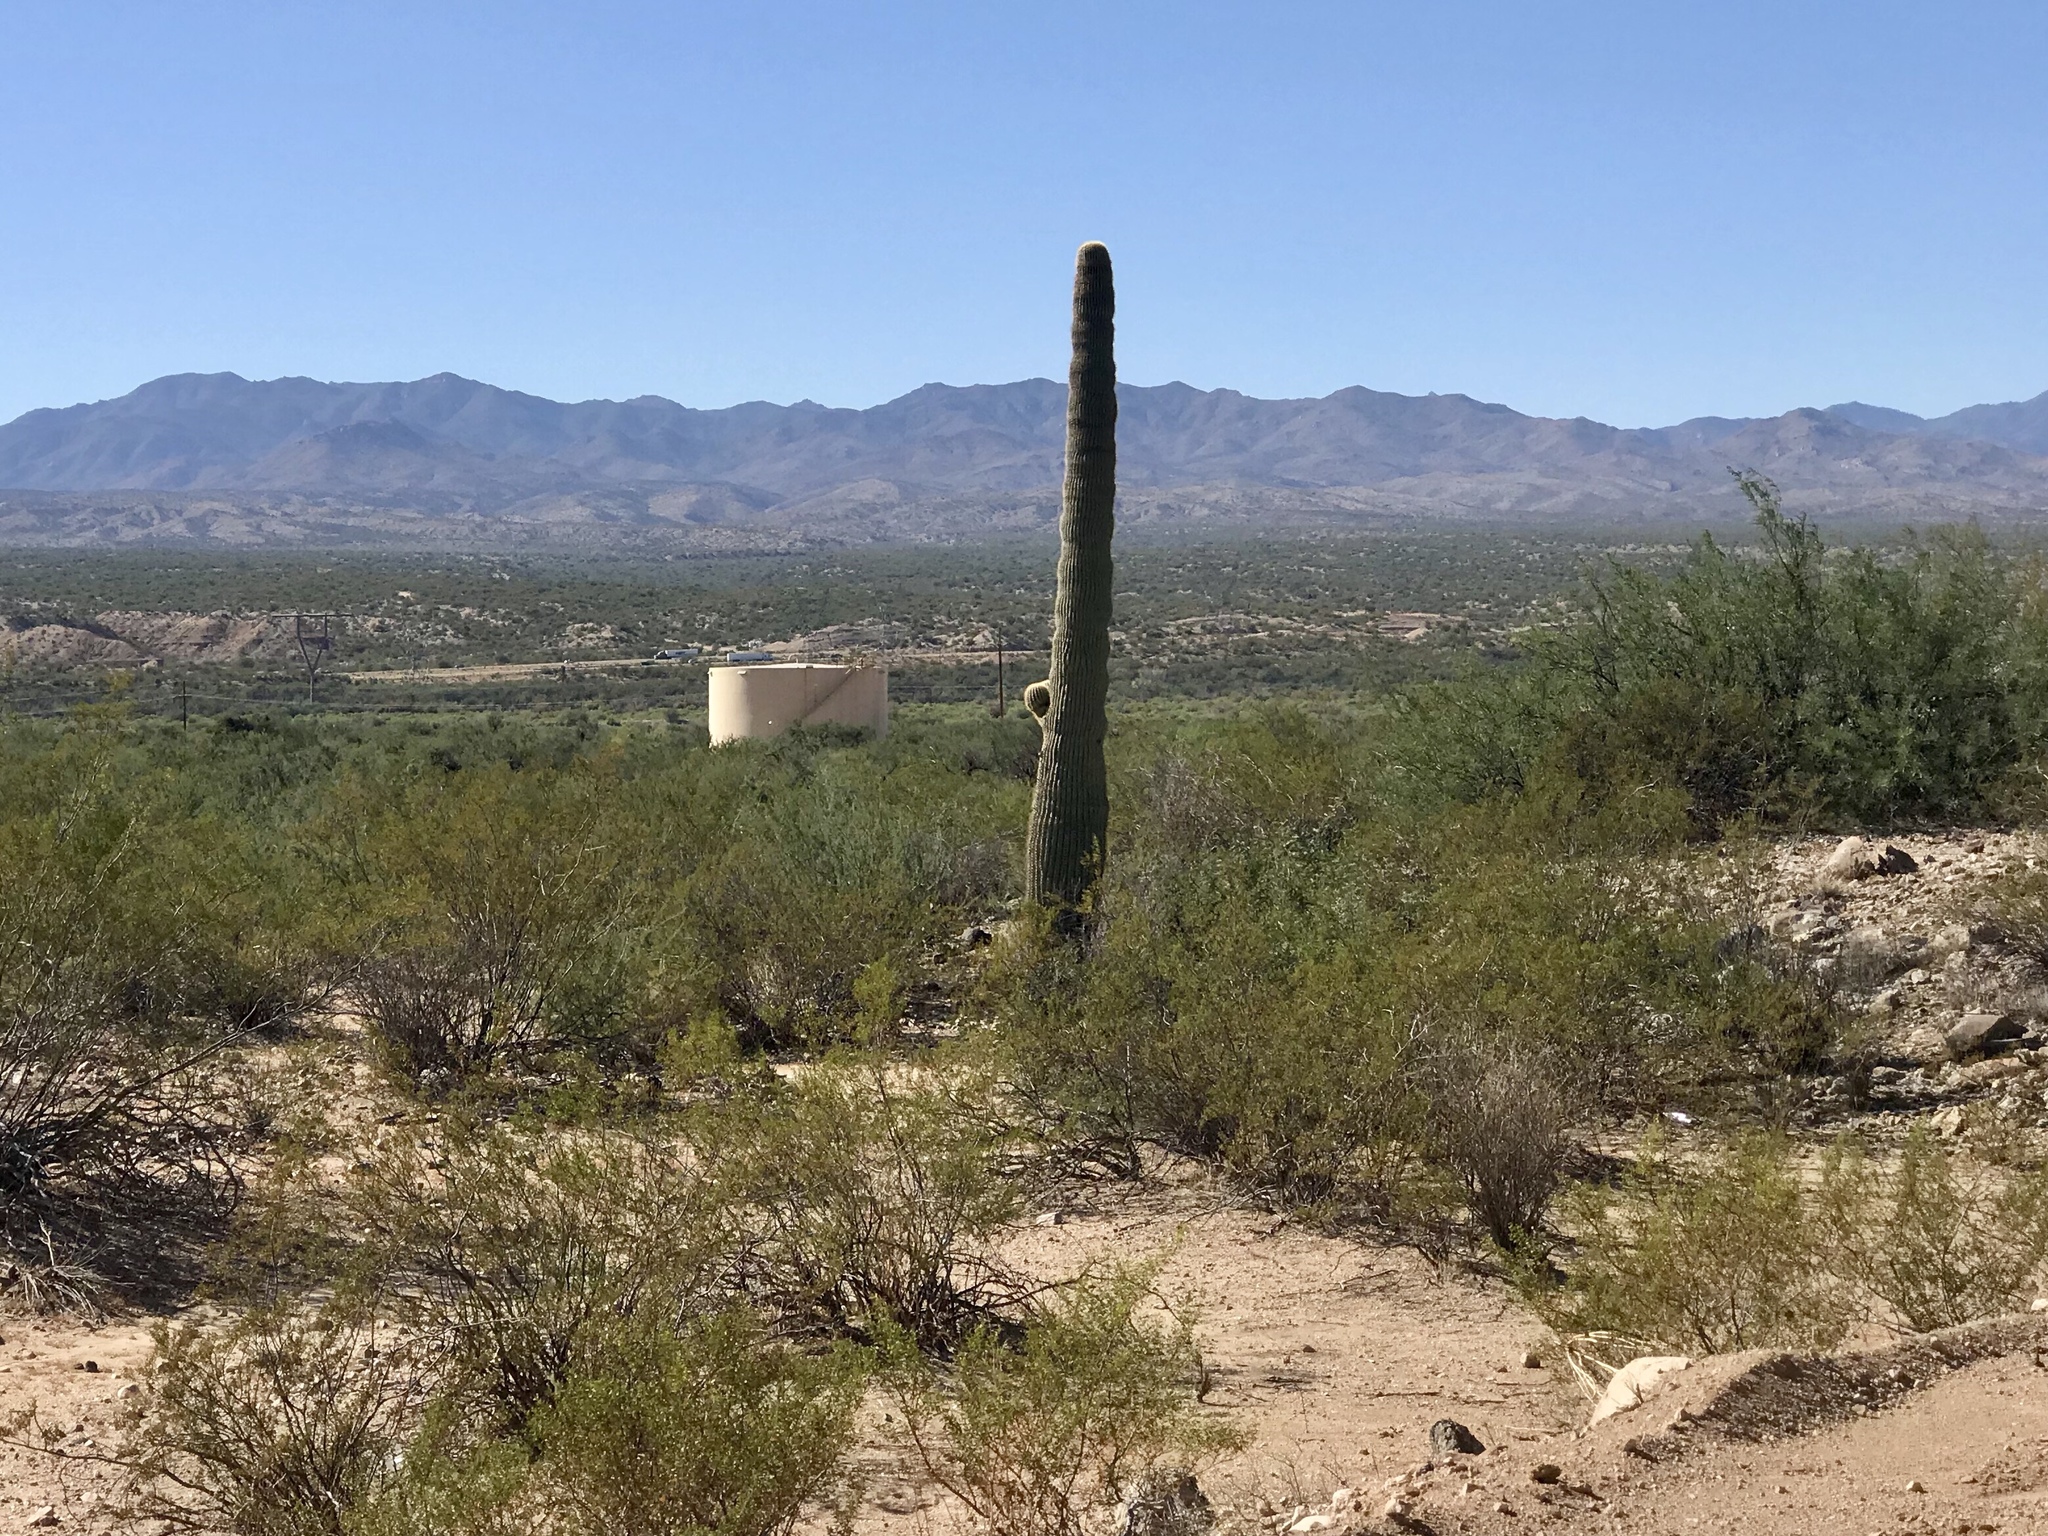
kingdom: Plantae
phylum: Tracheophyta
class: Magnoliopsida
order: Caryophyllales
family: Cactaceae
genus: Carnegiea
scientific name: Carnegiea gigantea
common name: Saguaro
